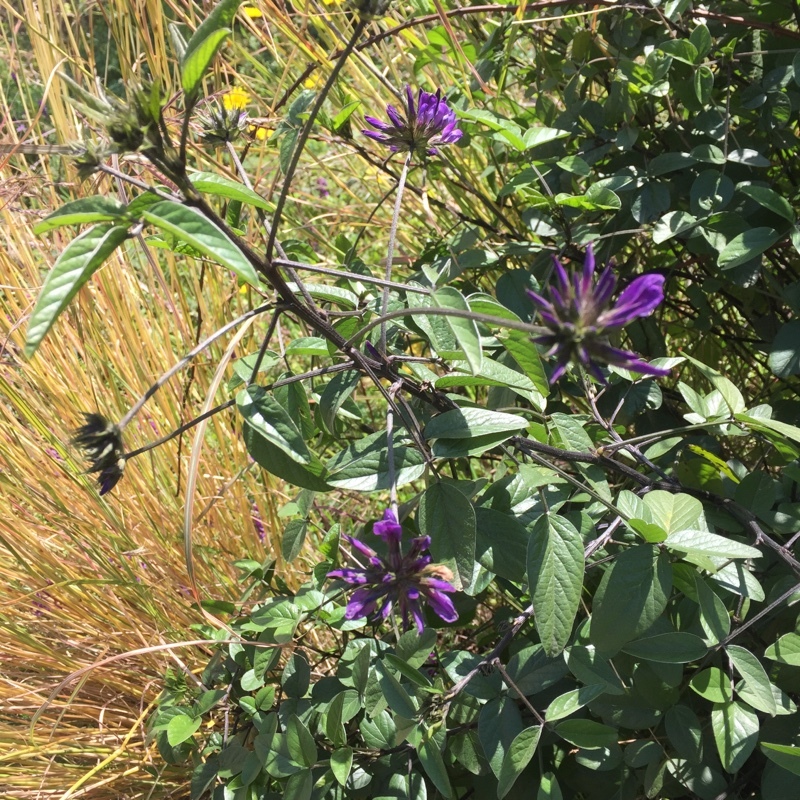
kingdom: Plantae
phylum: Tracheophyta
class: Magnoliopsida
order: Fabales
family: Fabaceae
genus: Bituminaria
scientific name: Bituminaria bituminosa
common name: Arabian pea
